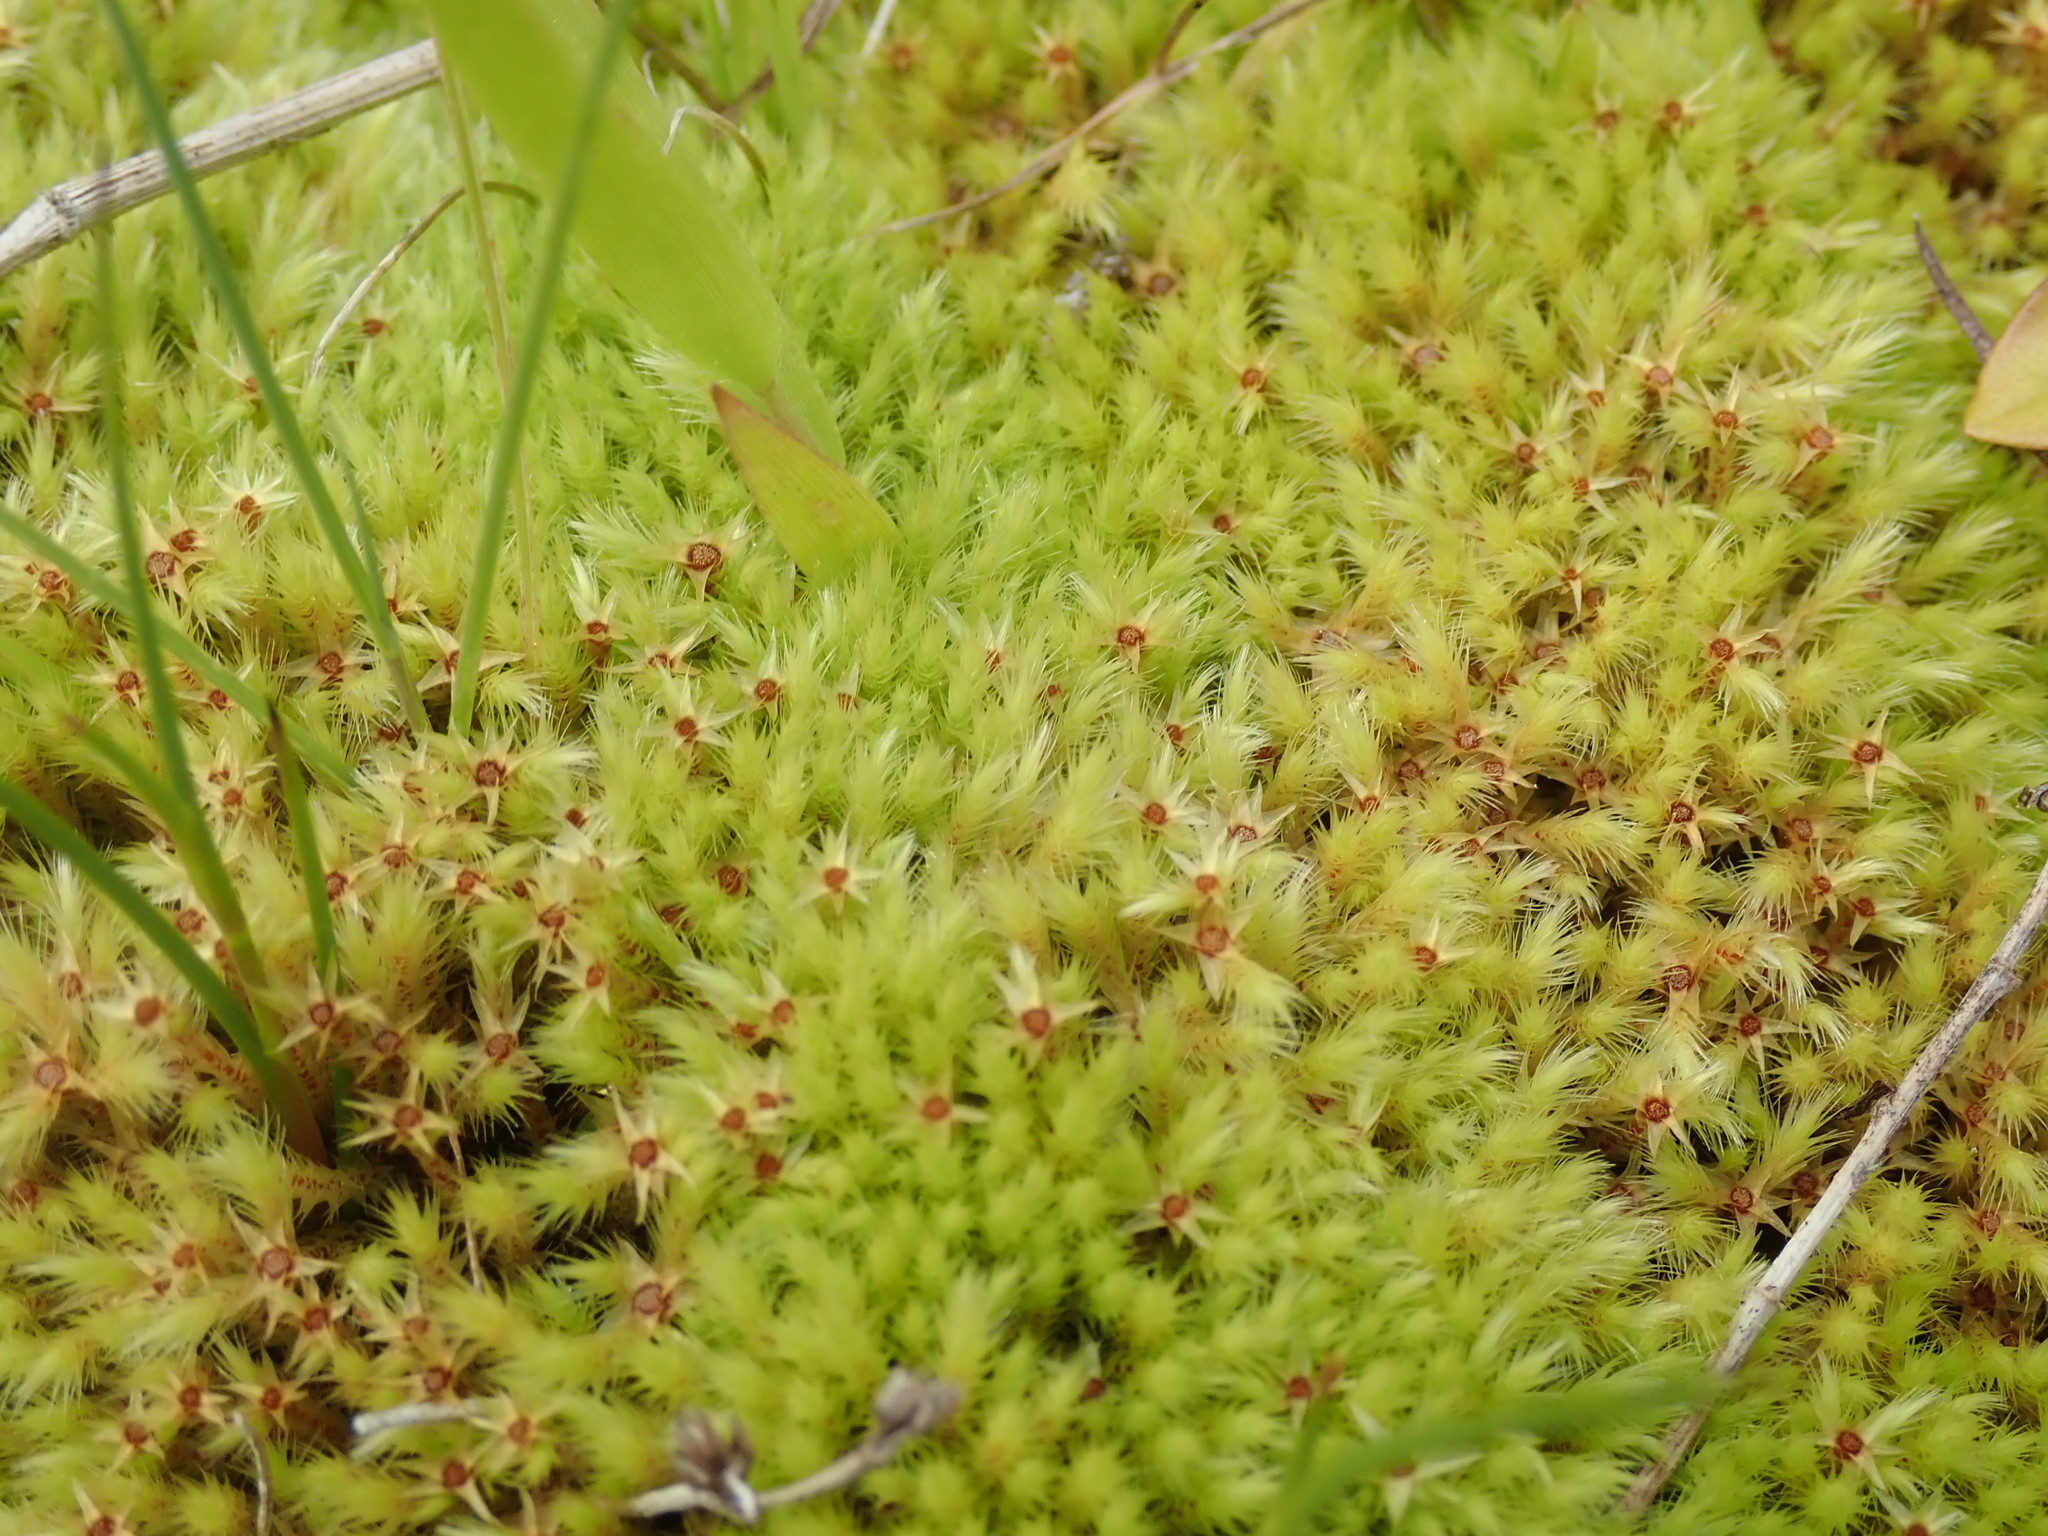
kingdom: Plantae
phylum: Bryophyta
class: Bryopsida
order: Bartramiales
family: Bartramiaceae
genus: Philonotis
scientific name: Philonotis fontana
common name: Fountain apple-moss
